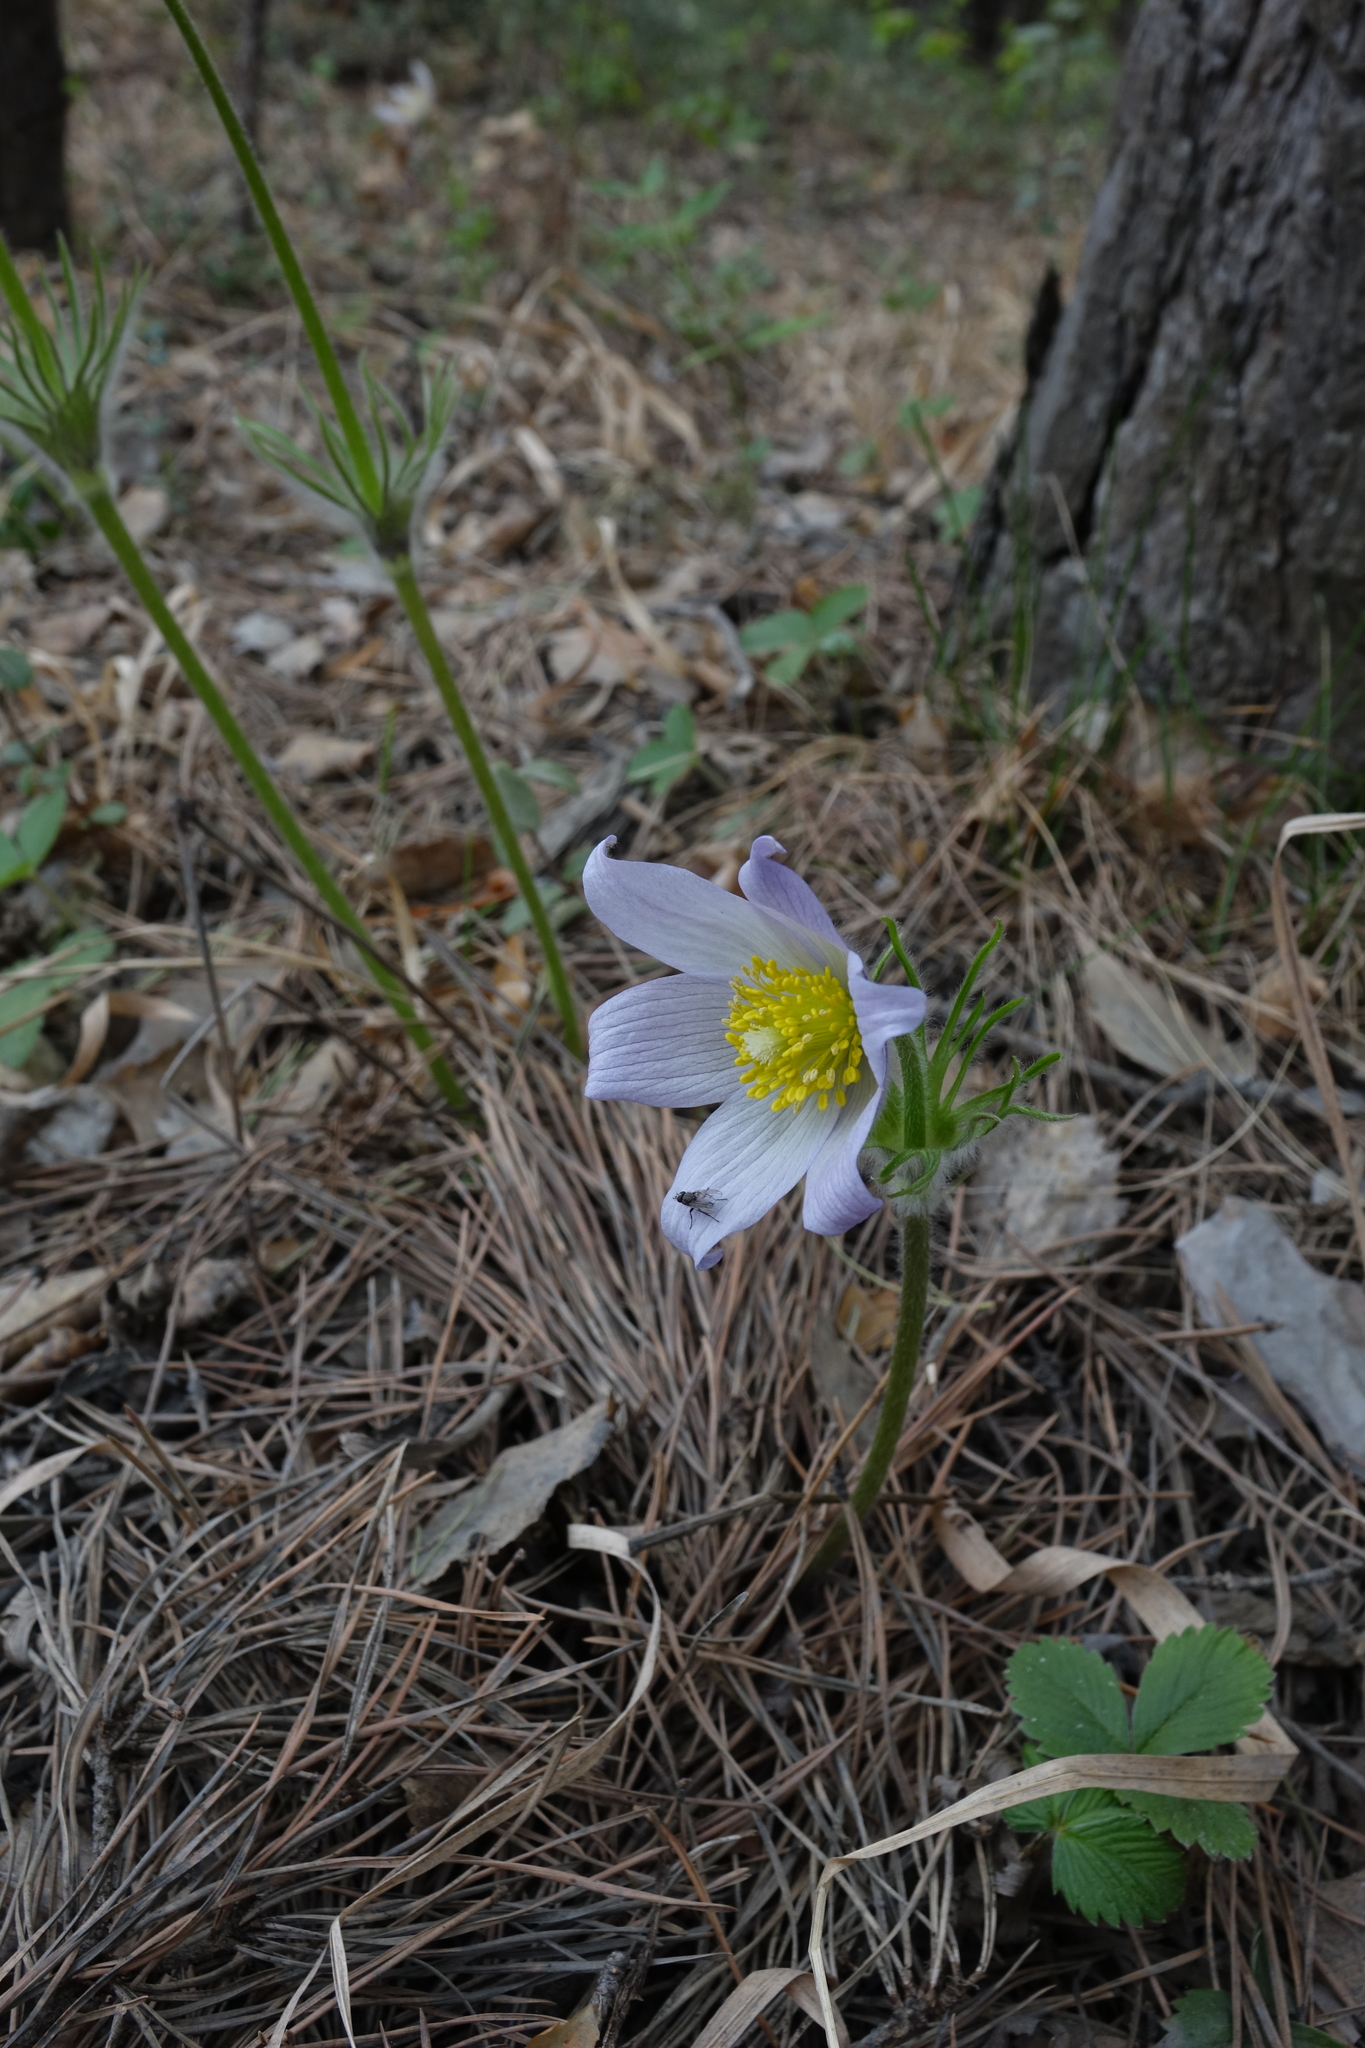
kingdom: Plantae
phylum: Tracheophyta
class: Magnoliopsida
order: Ranunculales
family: Ranunculaceae
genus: Pulsatilla
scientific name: Pulsatilla patens
